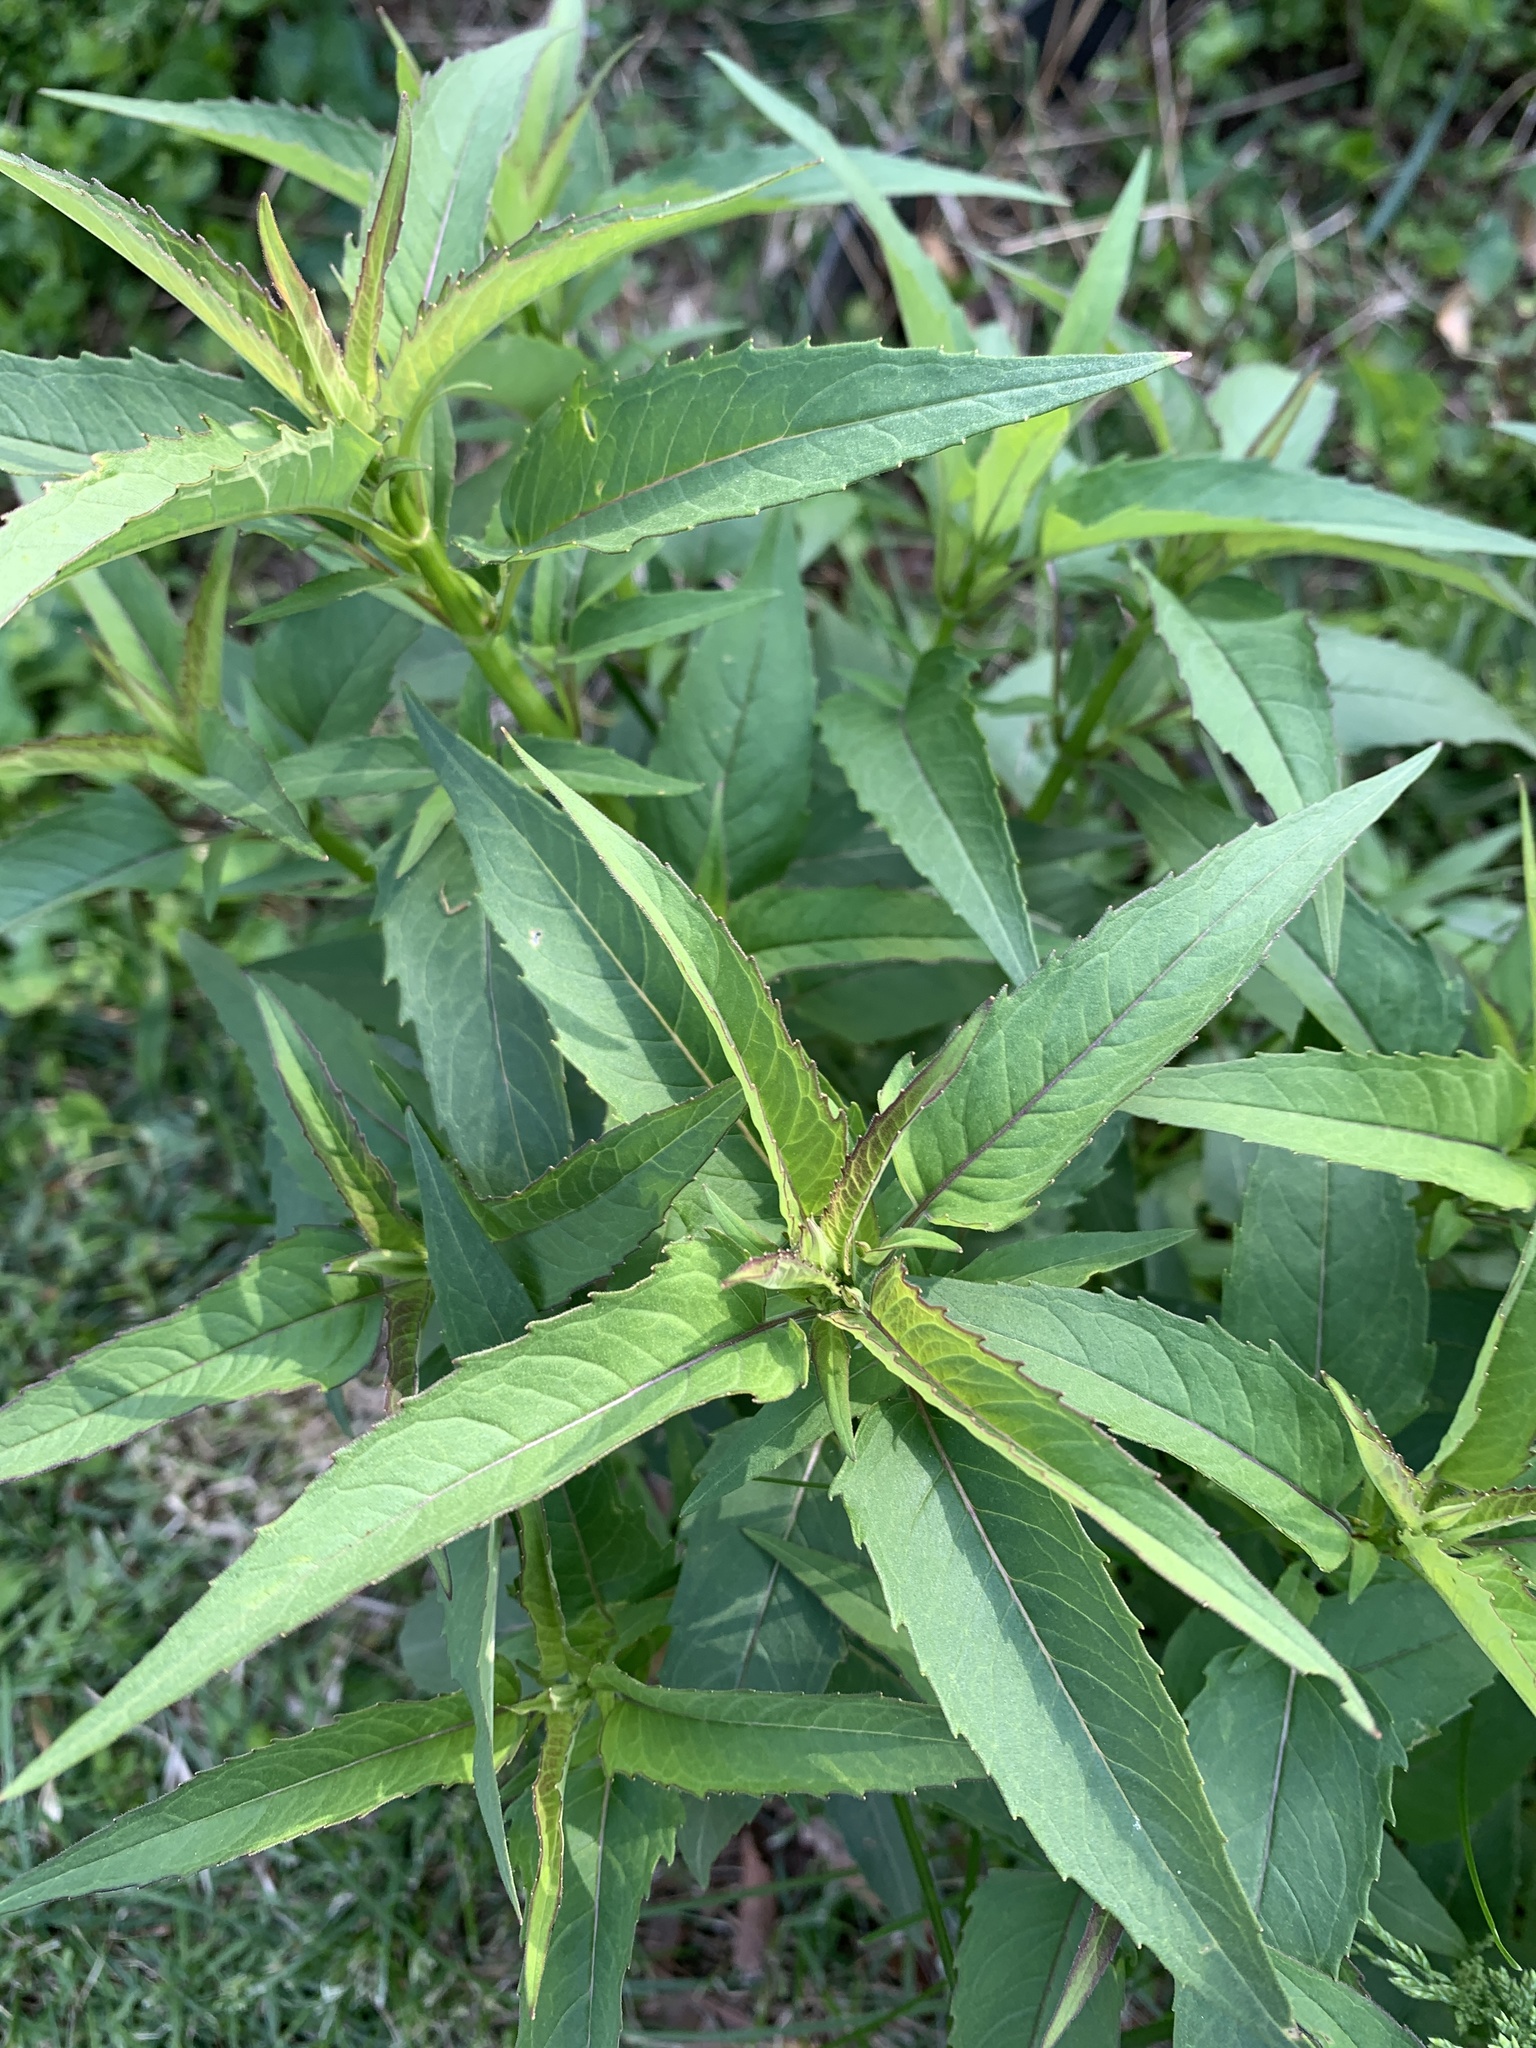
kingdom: Plantae
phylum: Tracheophyta
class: Magnoliopsida
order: Lamiales
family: Lamiaceae
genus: Monarda
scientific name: Monarda fistulosa
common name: Purple beebalm
